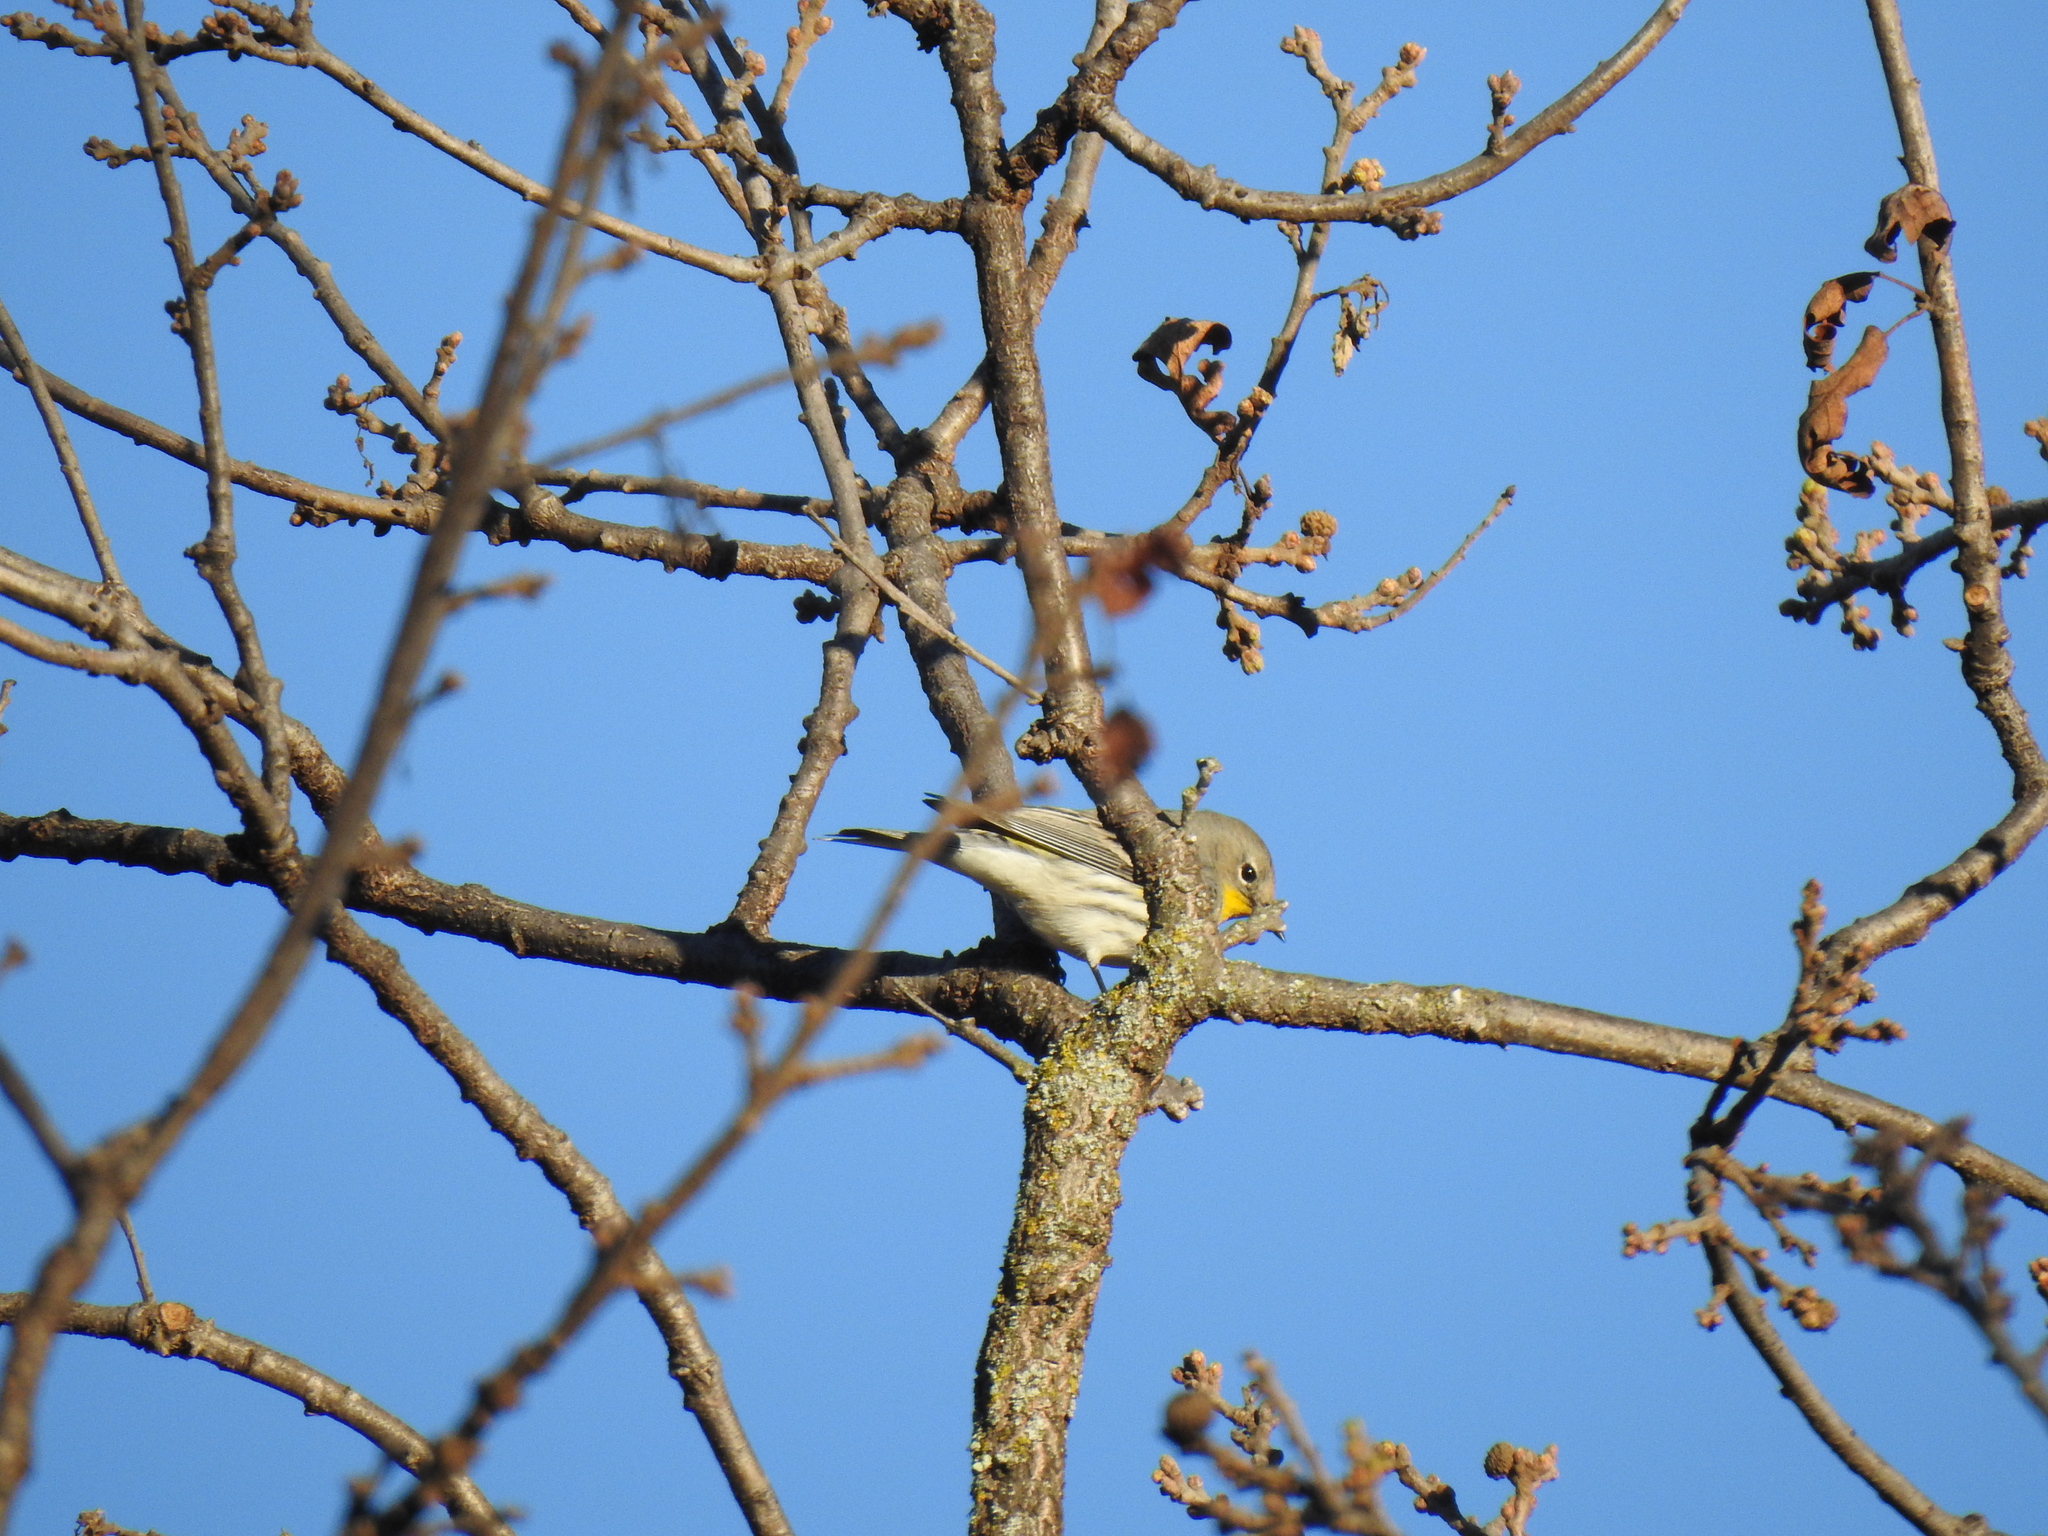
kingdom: Animalia
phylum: Chordata
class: Aves
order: Passeriformes
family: Parulidae
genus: Setophaga
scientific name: Setophaga coronata
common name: Myrtle warbler
